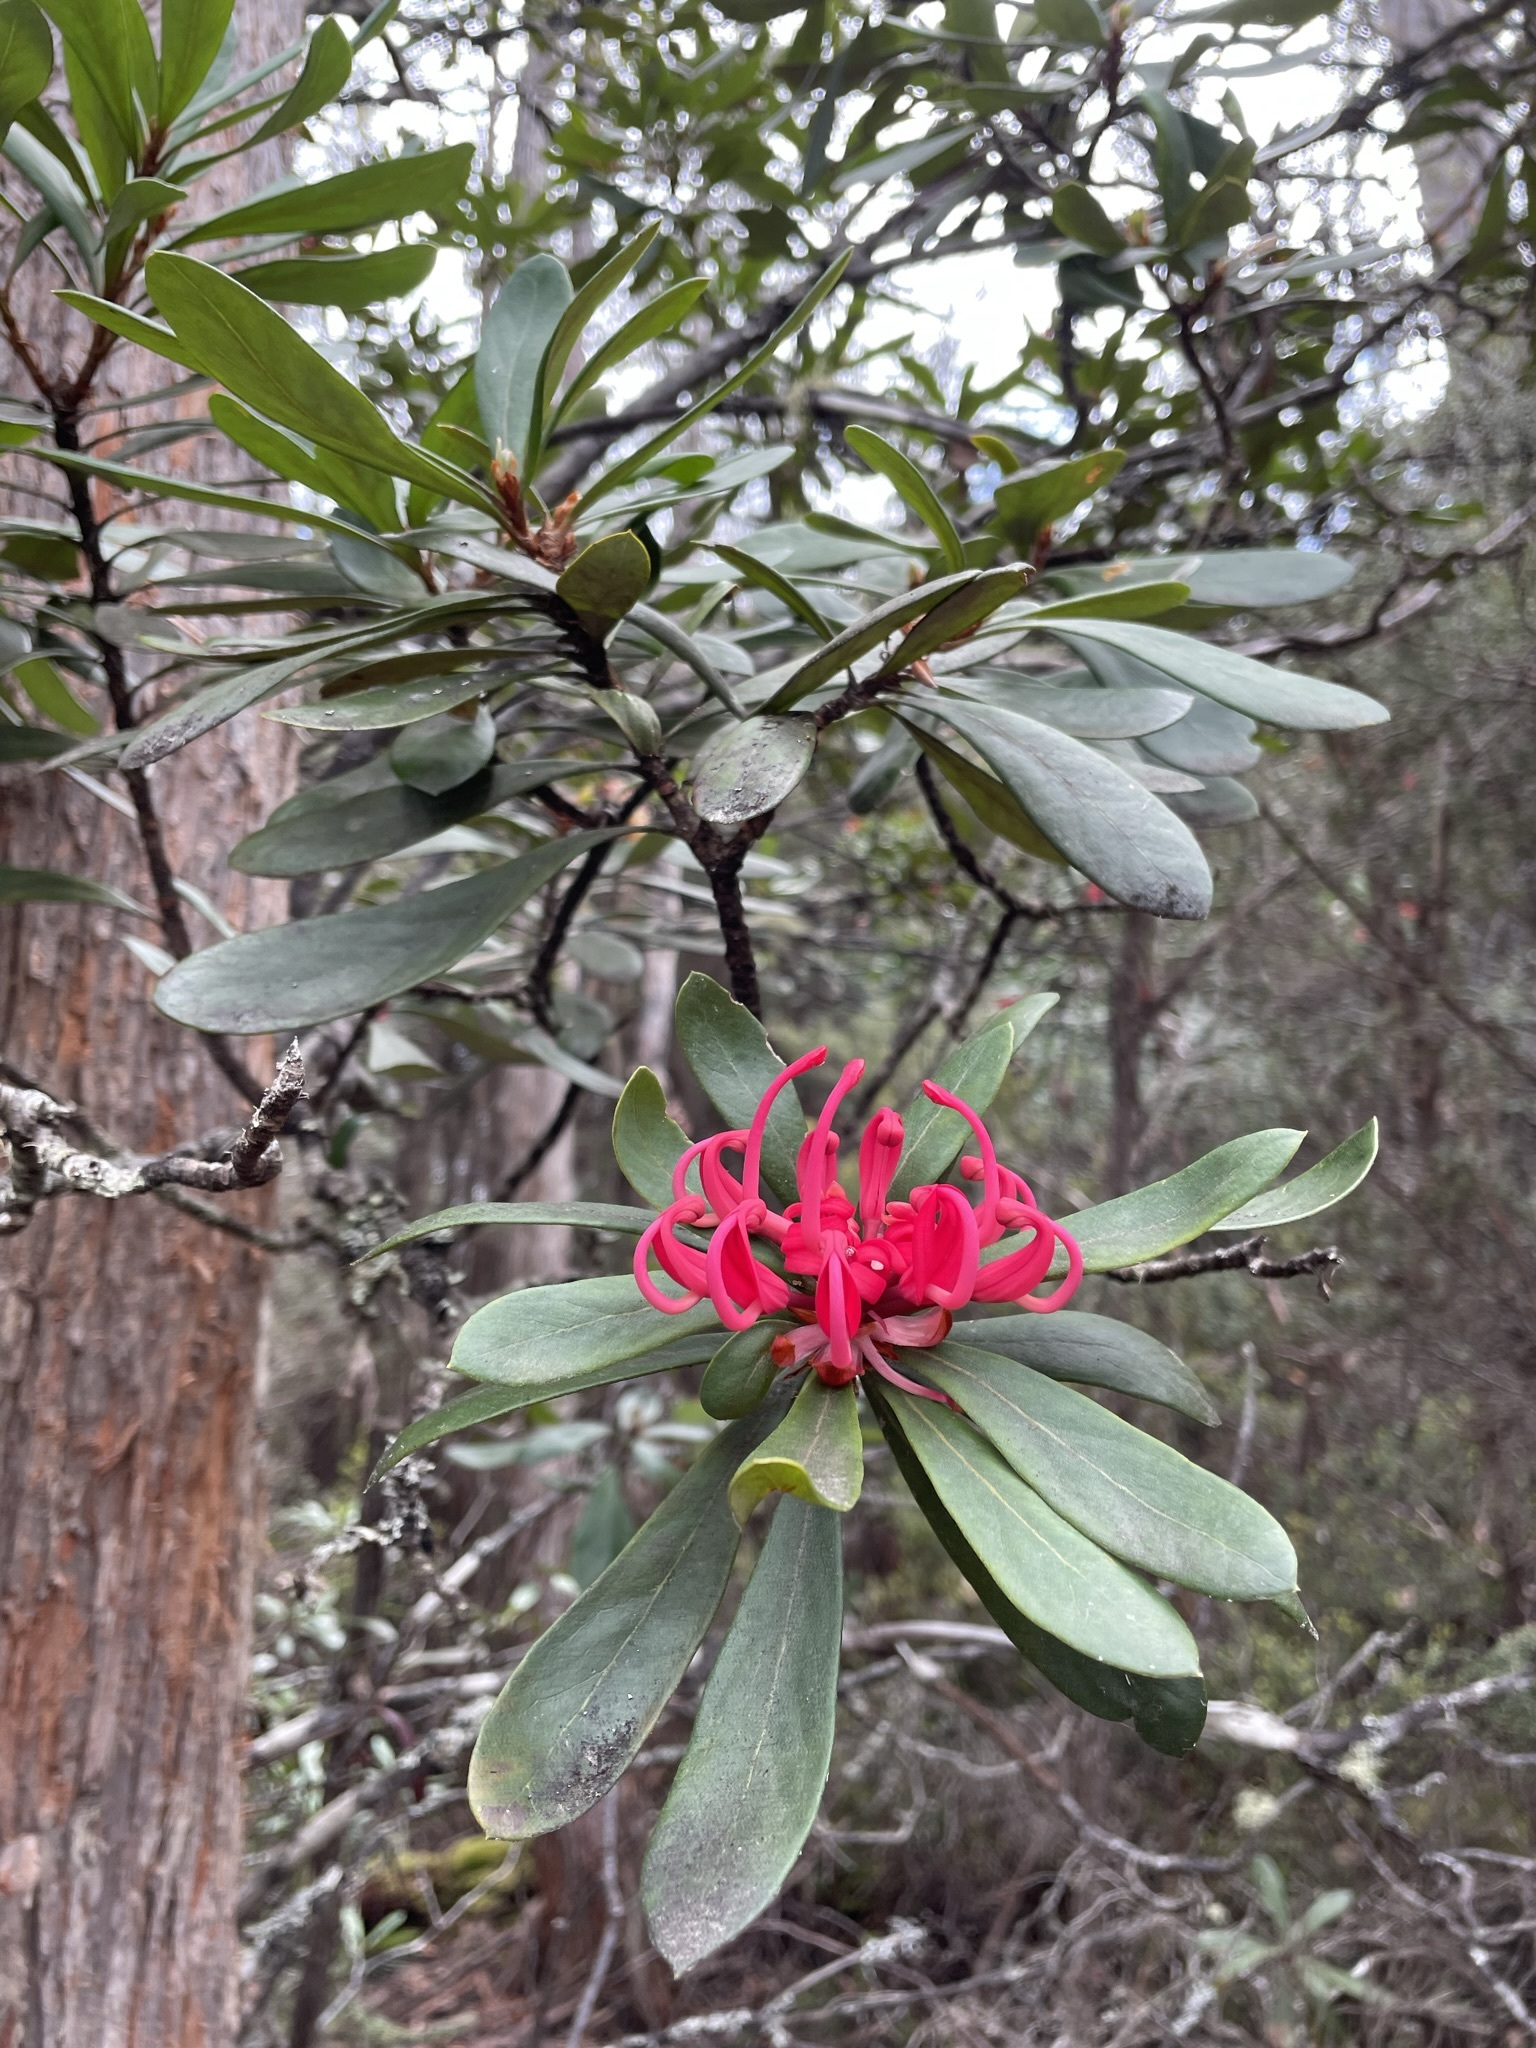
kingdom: Plantae
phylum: Tracheophyta
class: Magnoliopsida
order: Proteales
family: Proteaceae
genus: Telopea
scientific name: Telopea truncata
